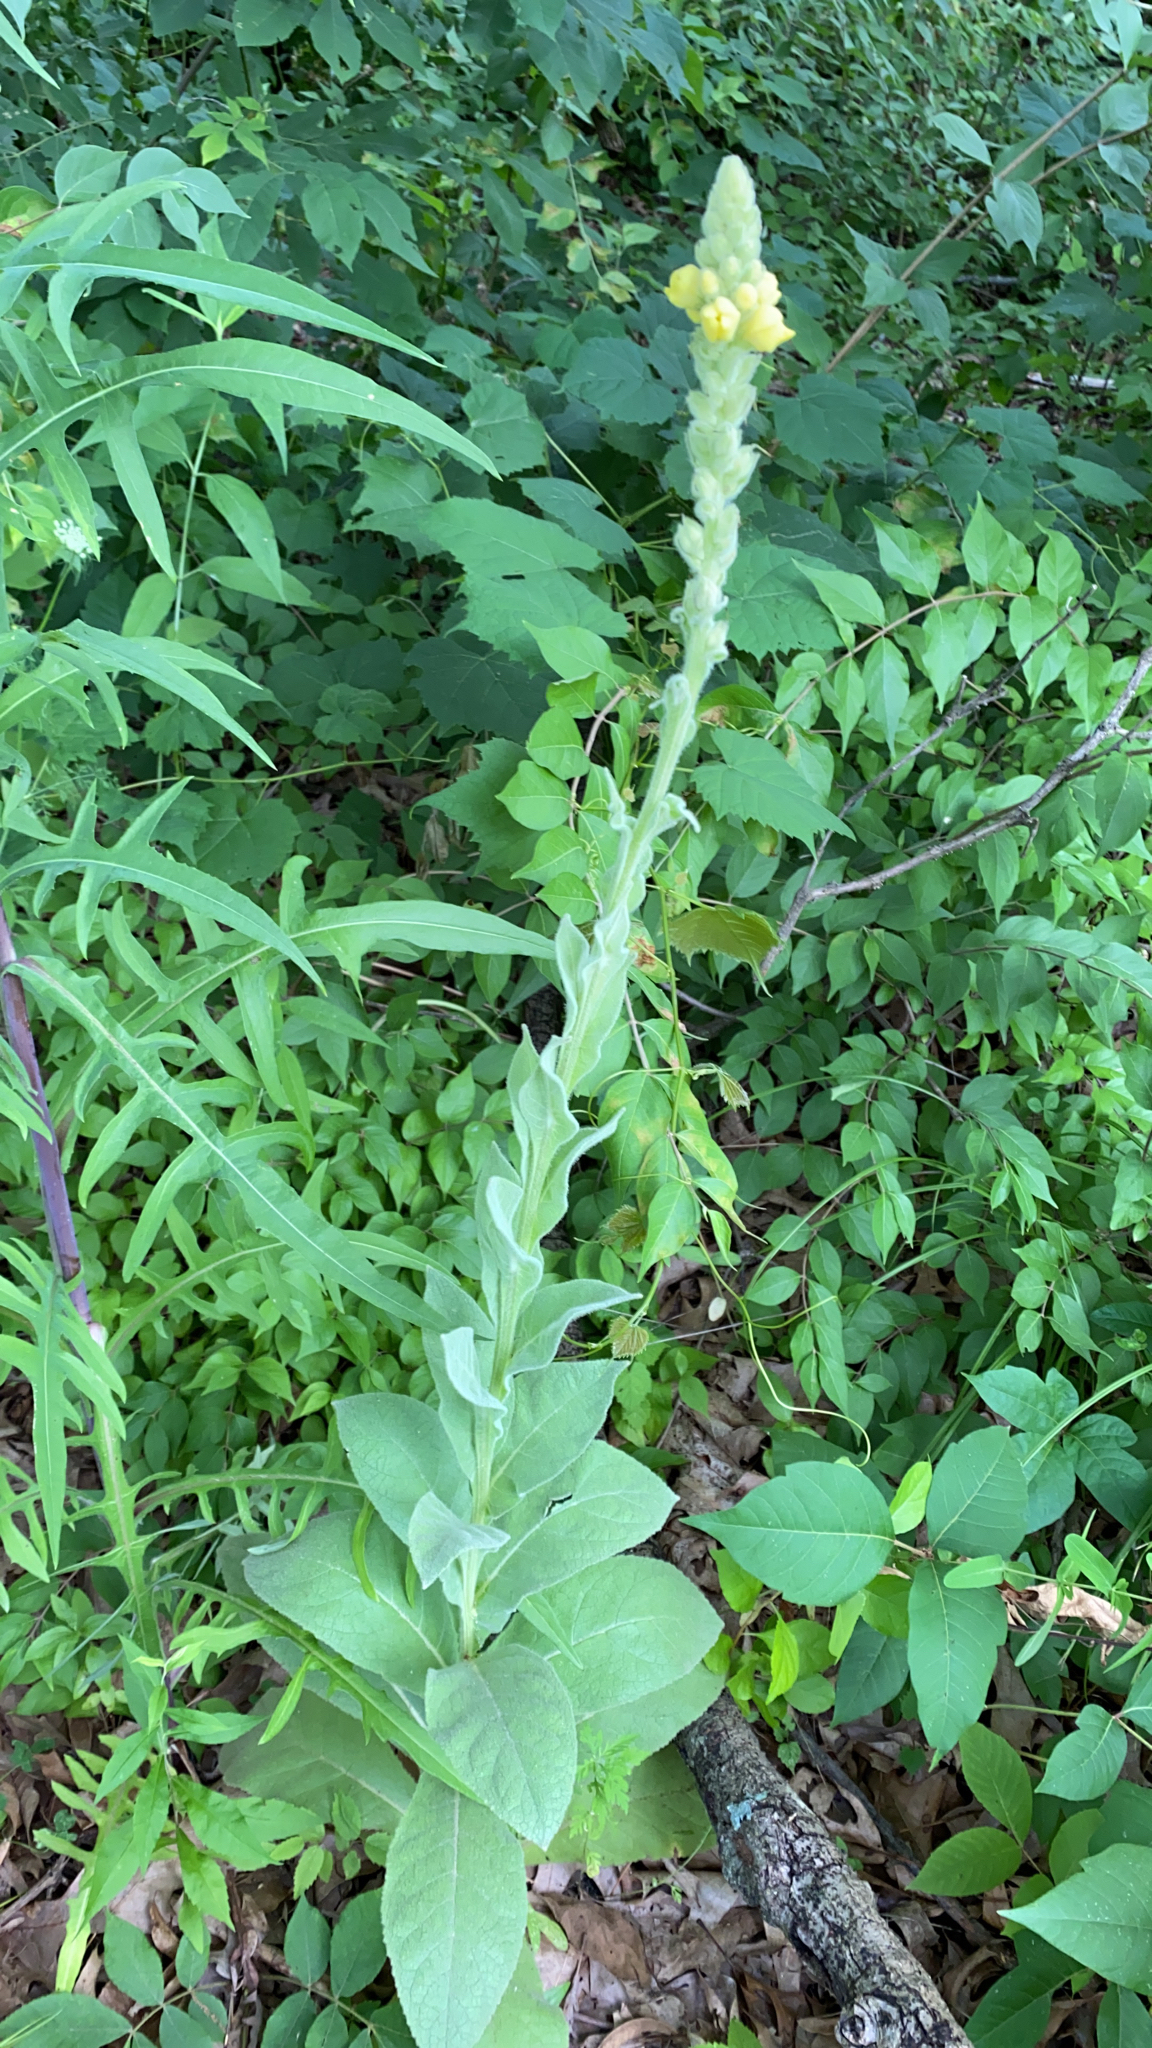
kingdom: Plantae
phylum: Tracheophyta
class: Magnoliopsida
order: Lamiales
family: Scrophulariaceae
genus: Verbascum
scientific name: Verbascum thapsus
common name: Common mullein
